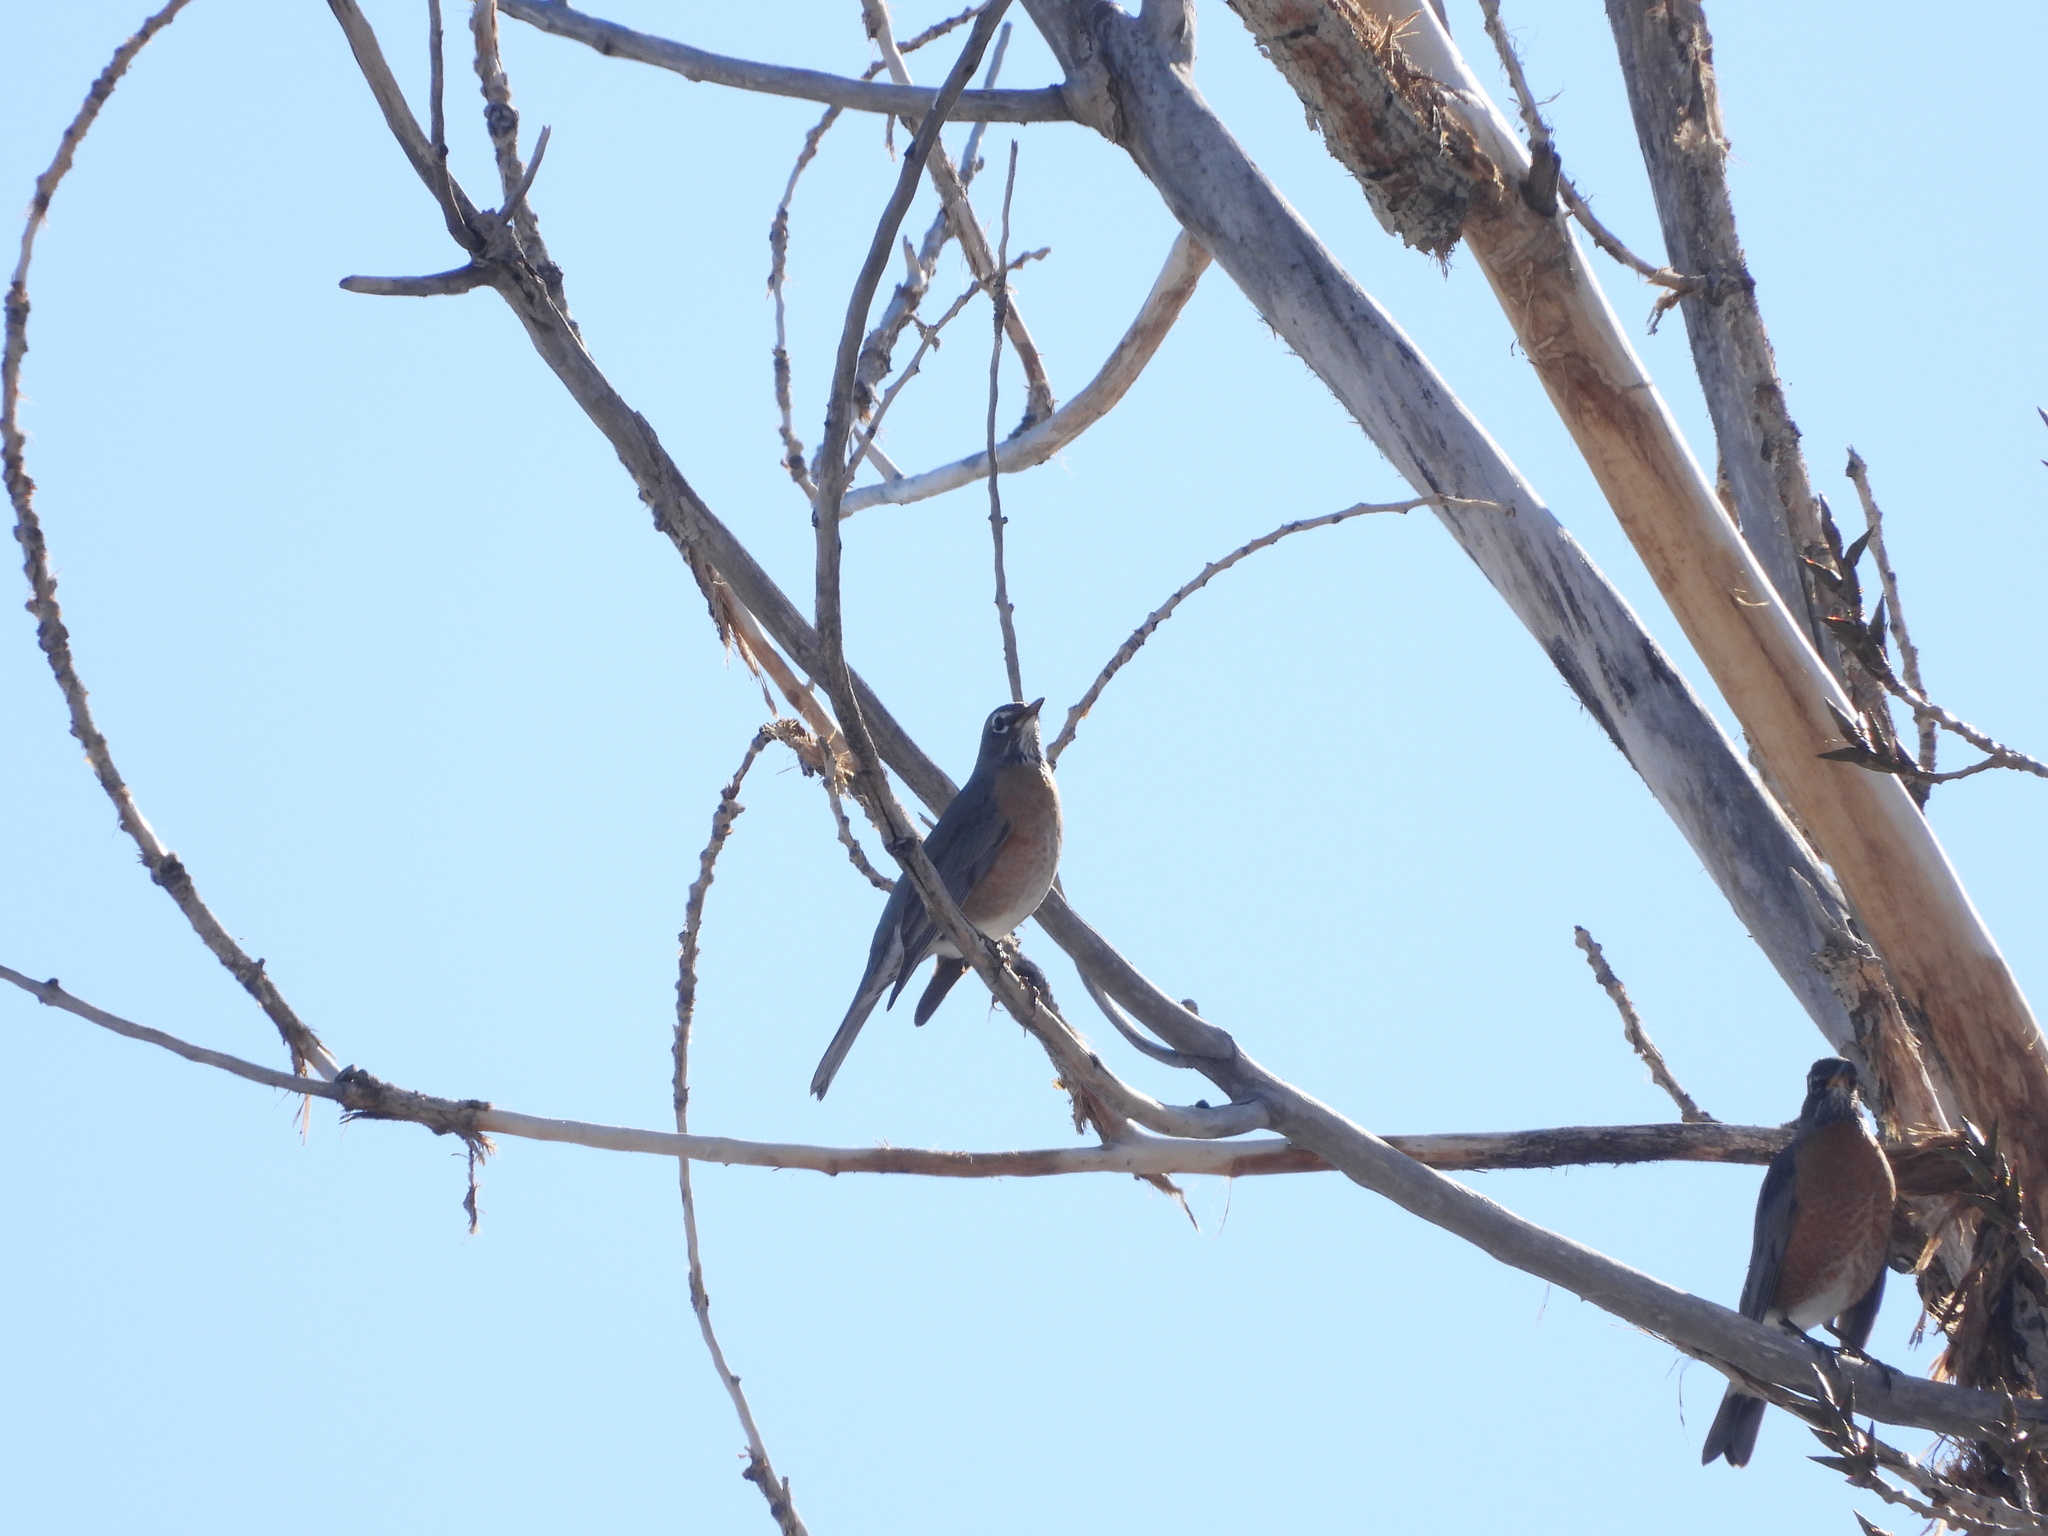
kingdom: Animalia
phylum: Chordata
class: Aves
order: Passeriformes
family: Turdidae
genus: Turdus
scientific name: Turdus migratorius
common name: American robin
